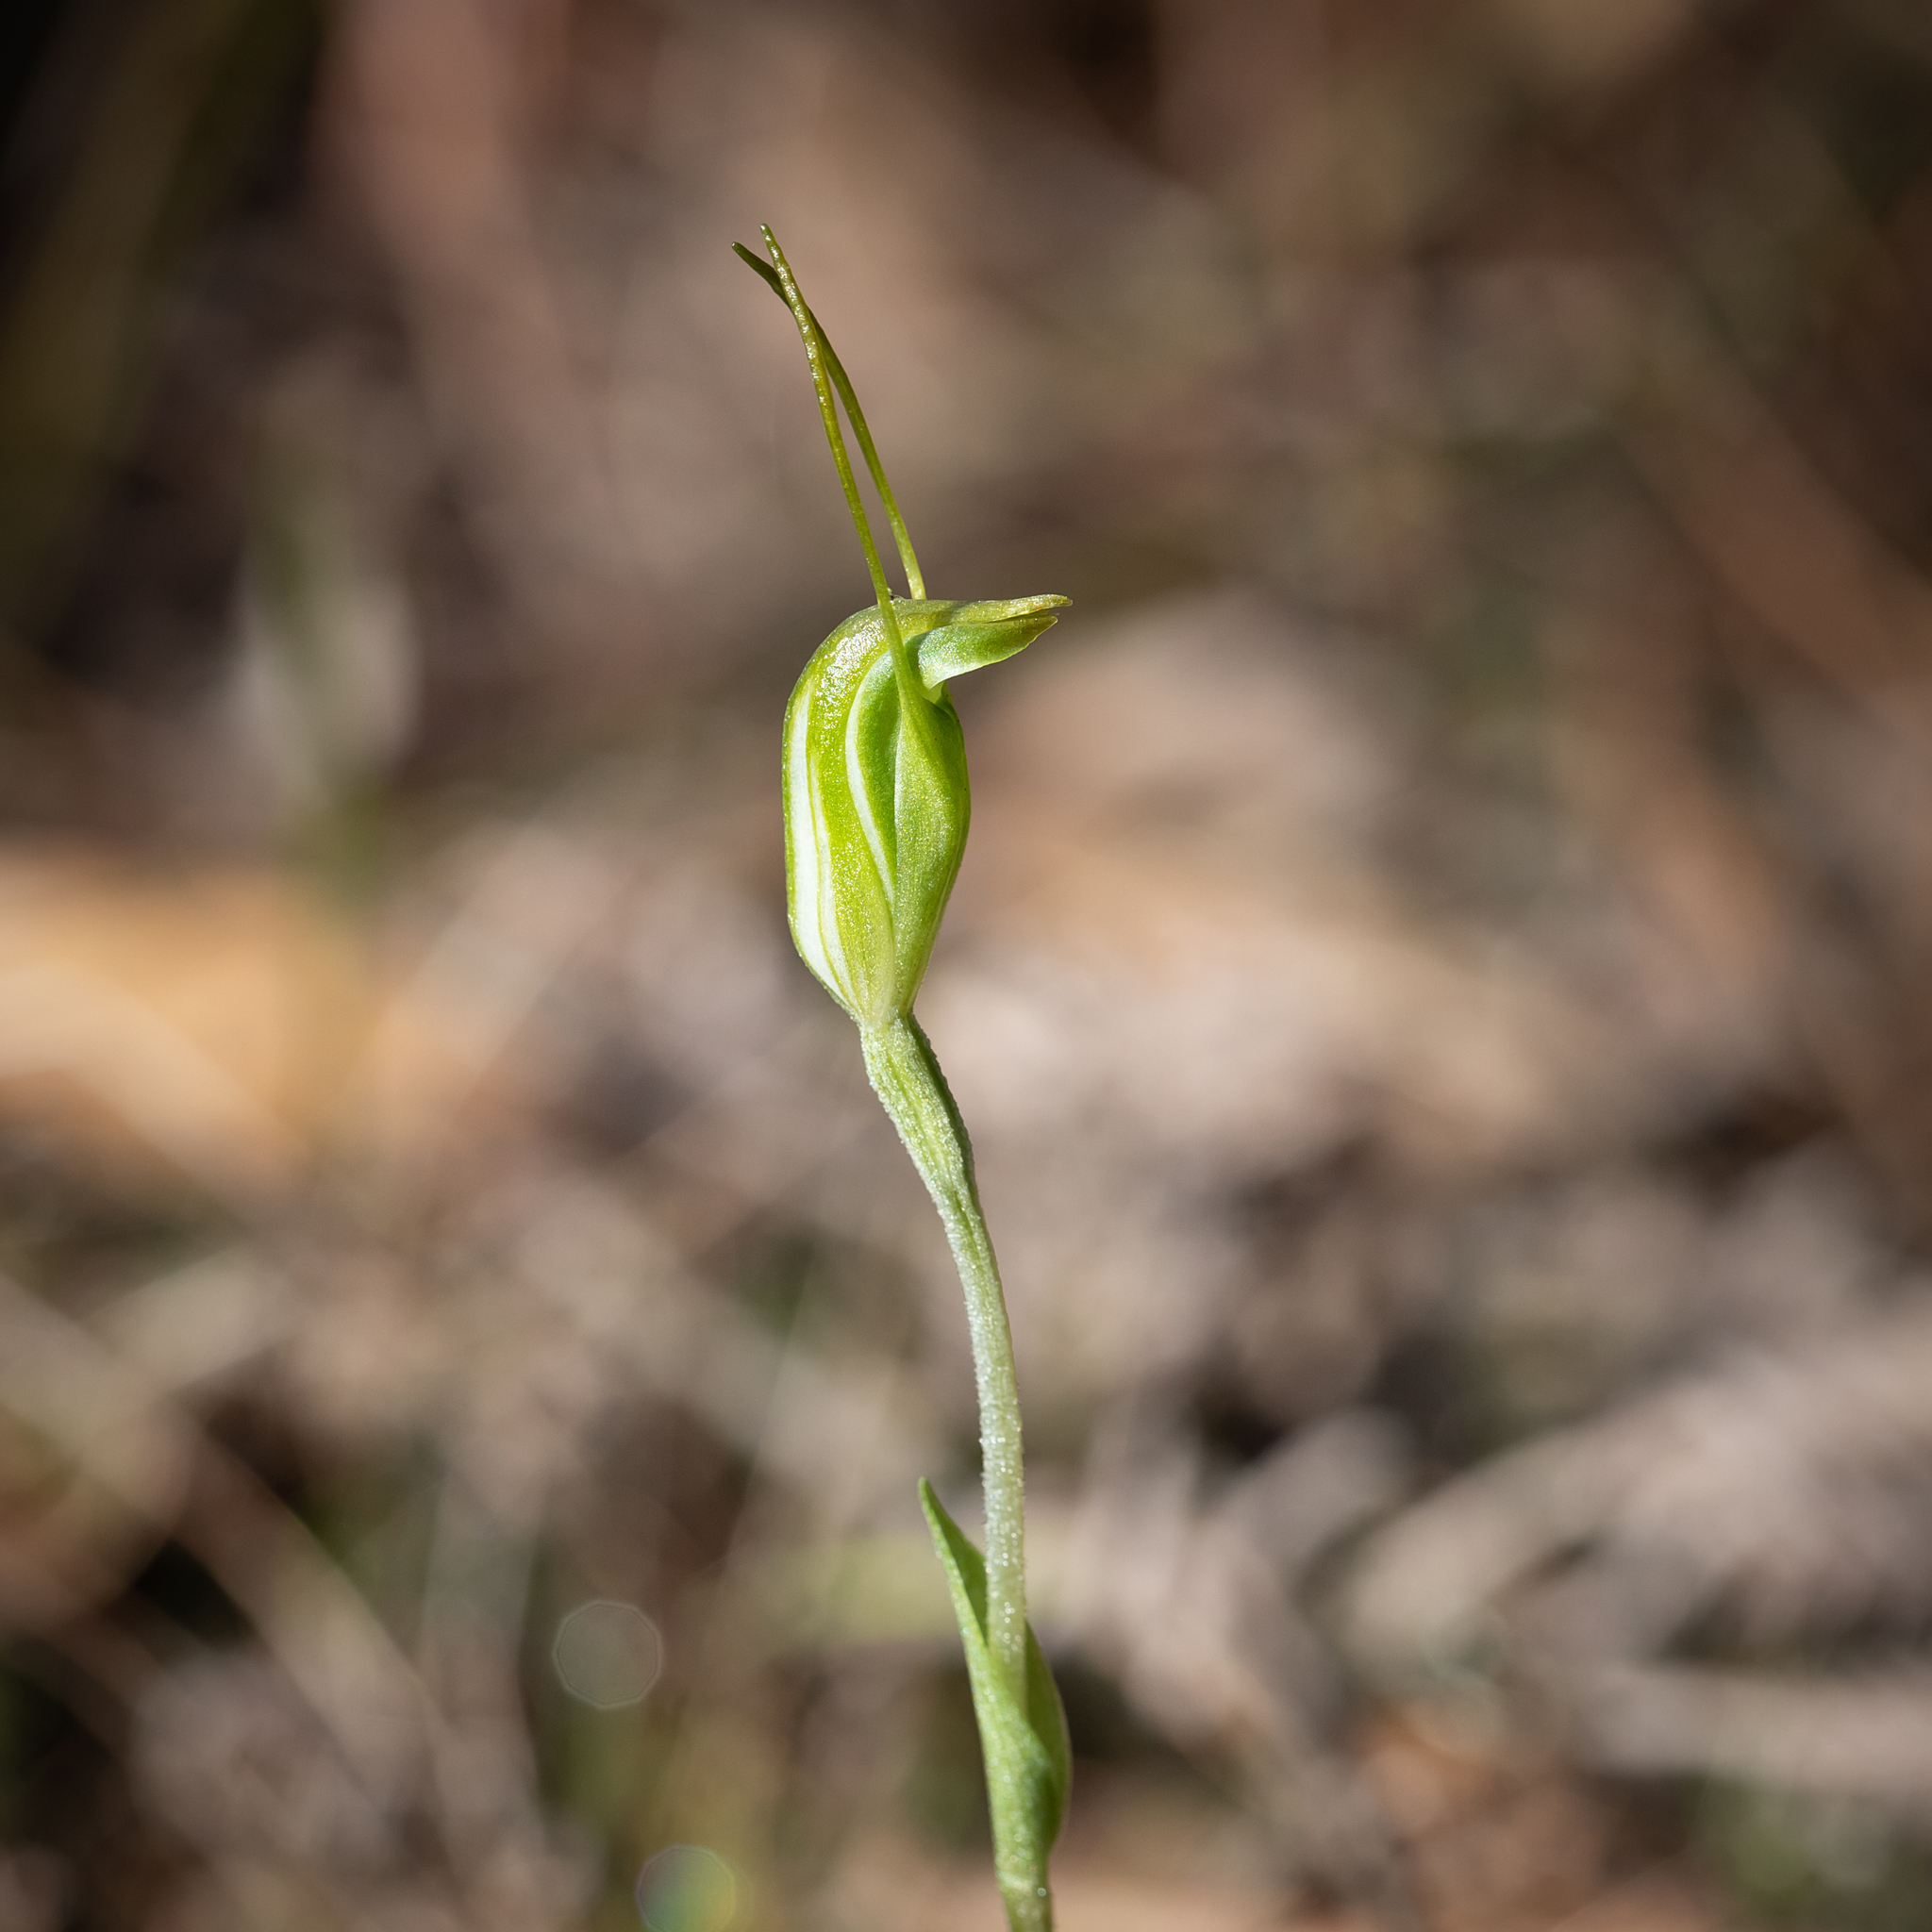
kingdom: Plantae
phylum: Tracheophyta
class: Liliopsida
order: Asparagales
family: Orchidaceae
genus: Pterostylis
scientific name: Pterostylis nana
